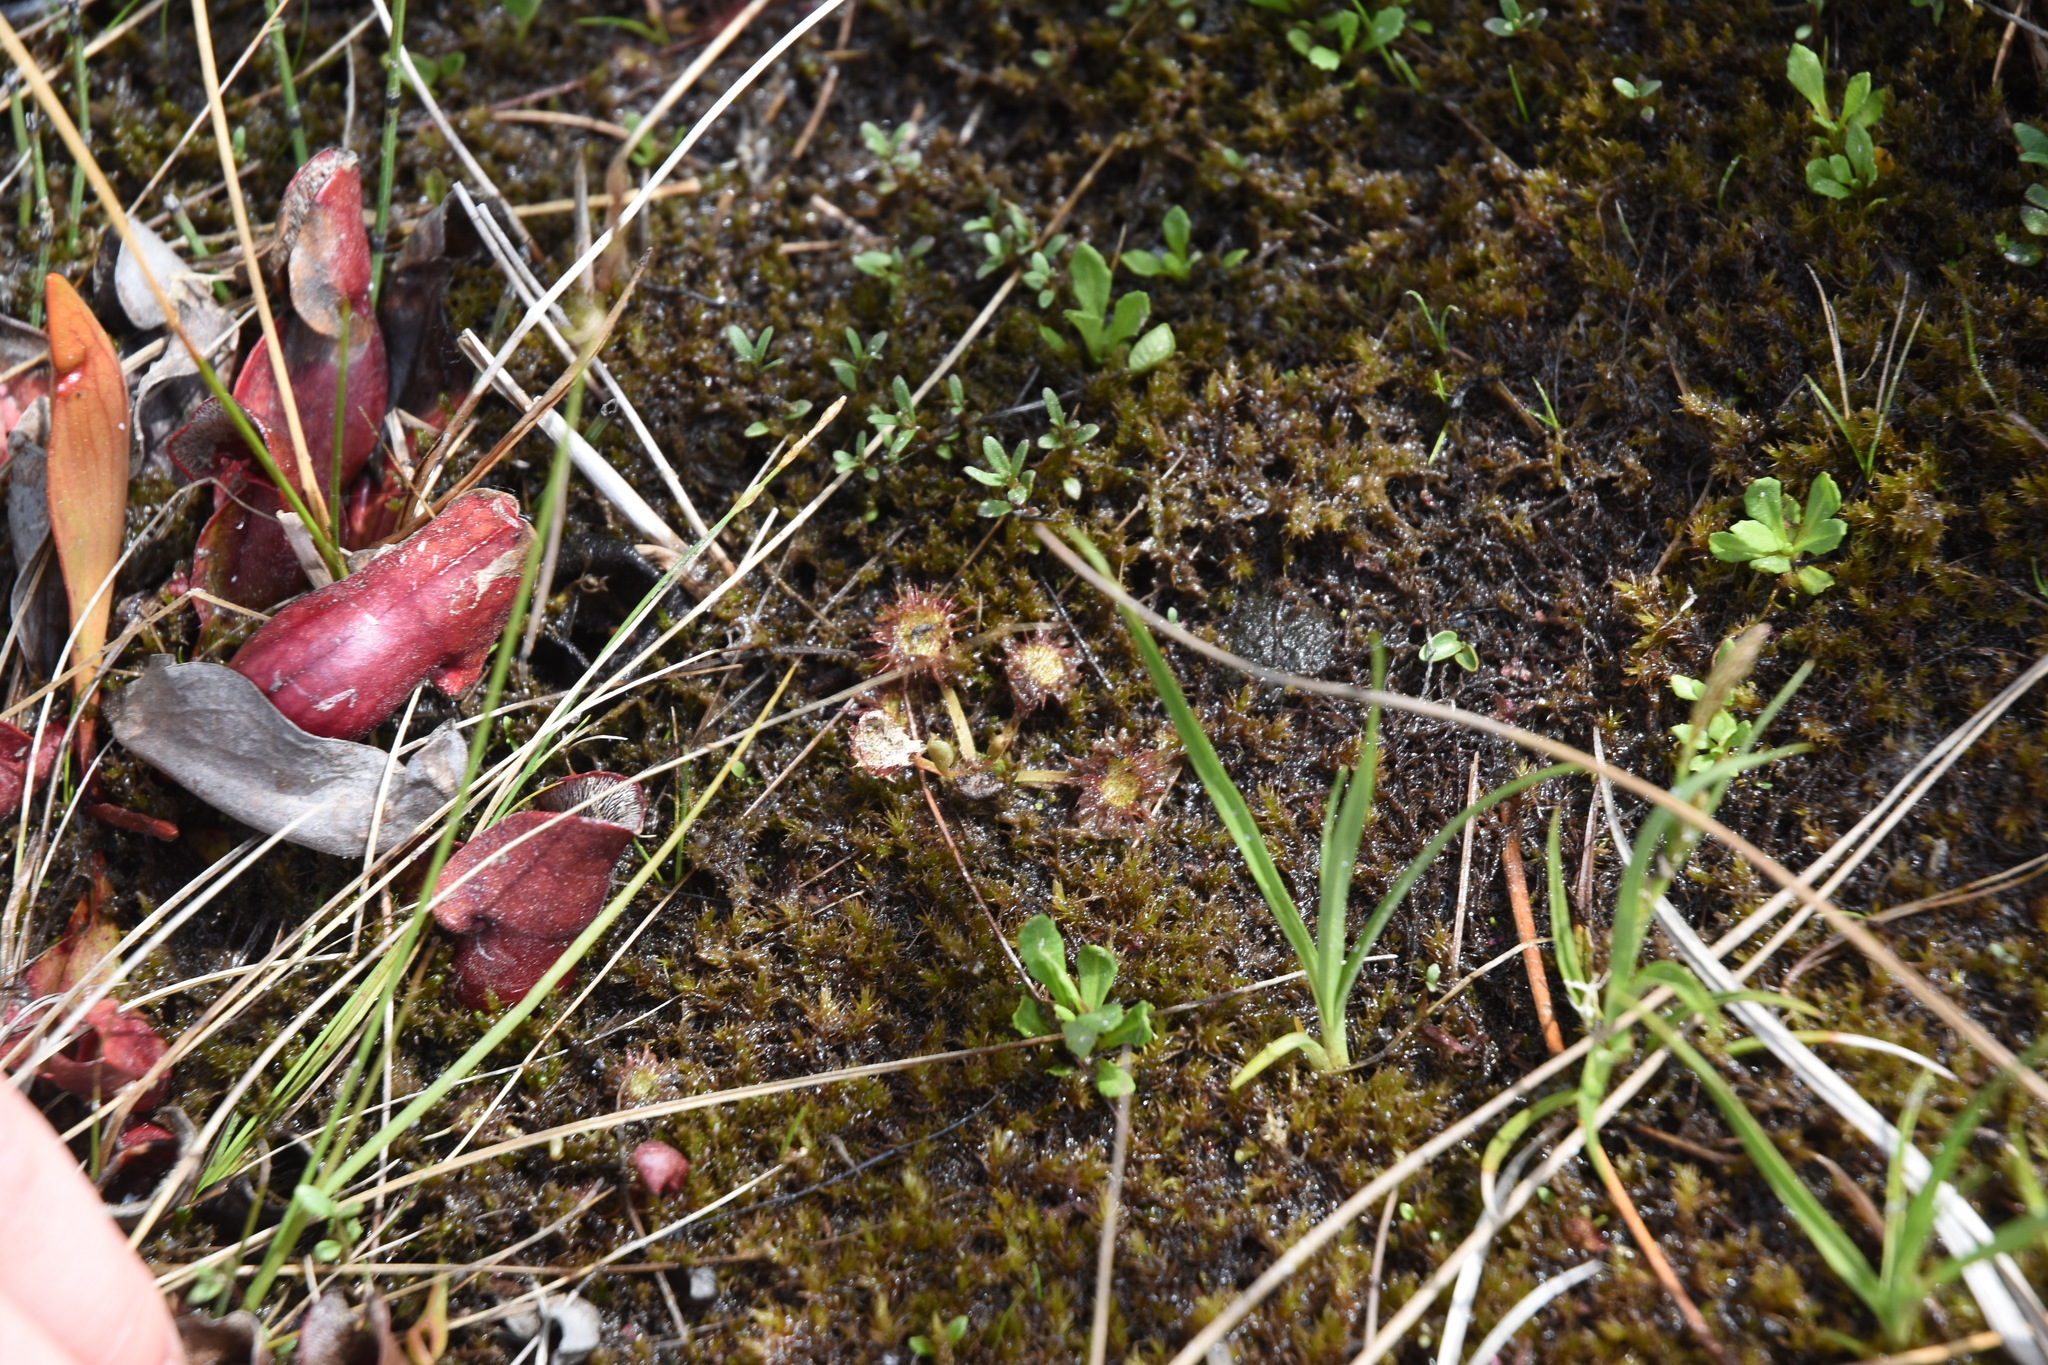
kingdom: Plantae
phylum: Tracheophyta
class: Magnoliopsida
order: Caryophyllales
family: Droseraceae
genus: Drosera
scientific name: Drosera rotundifolia
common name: Round-leaved sundew
